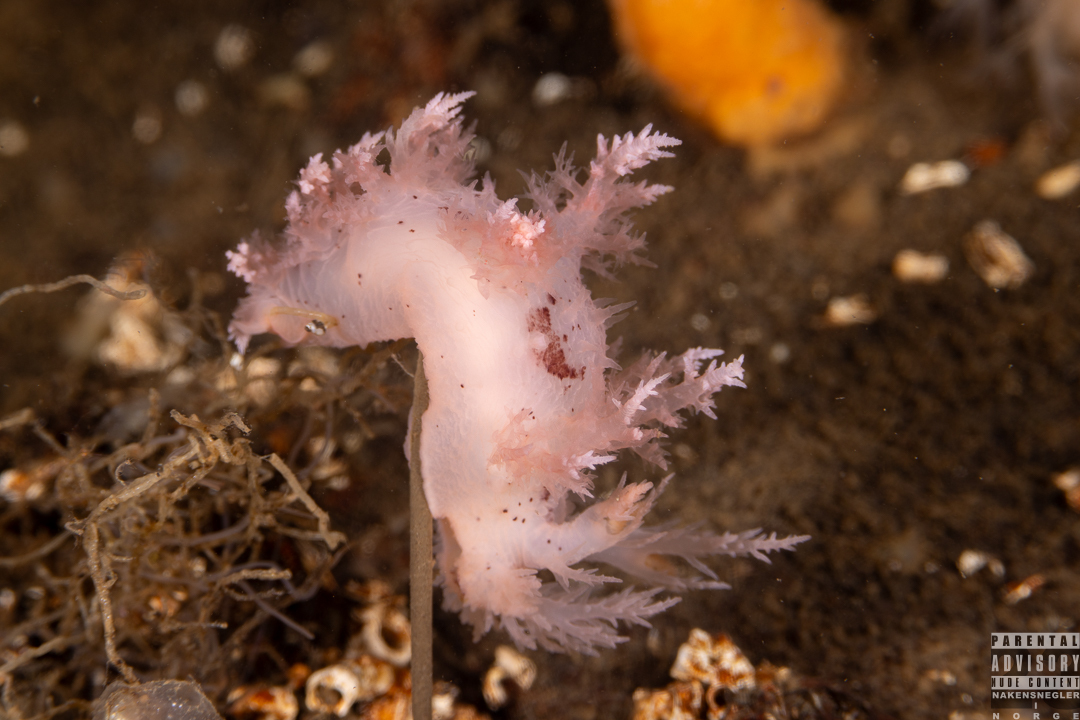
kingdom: Animalia
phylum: Mollusca
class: Gastropoda
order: Nudibranchia
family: Dendronotidae
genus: Dendronotus
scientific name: Dendronotus europaeus
